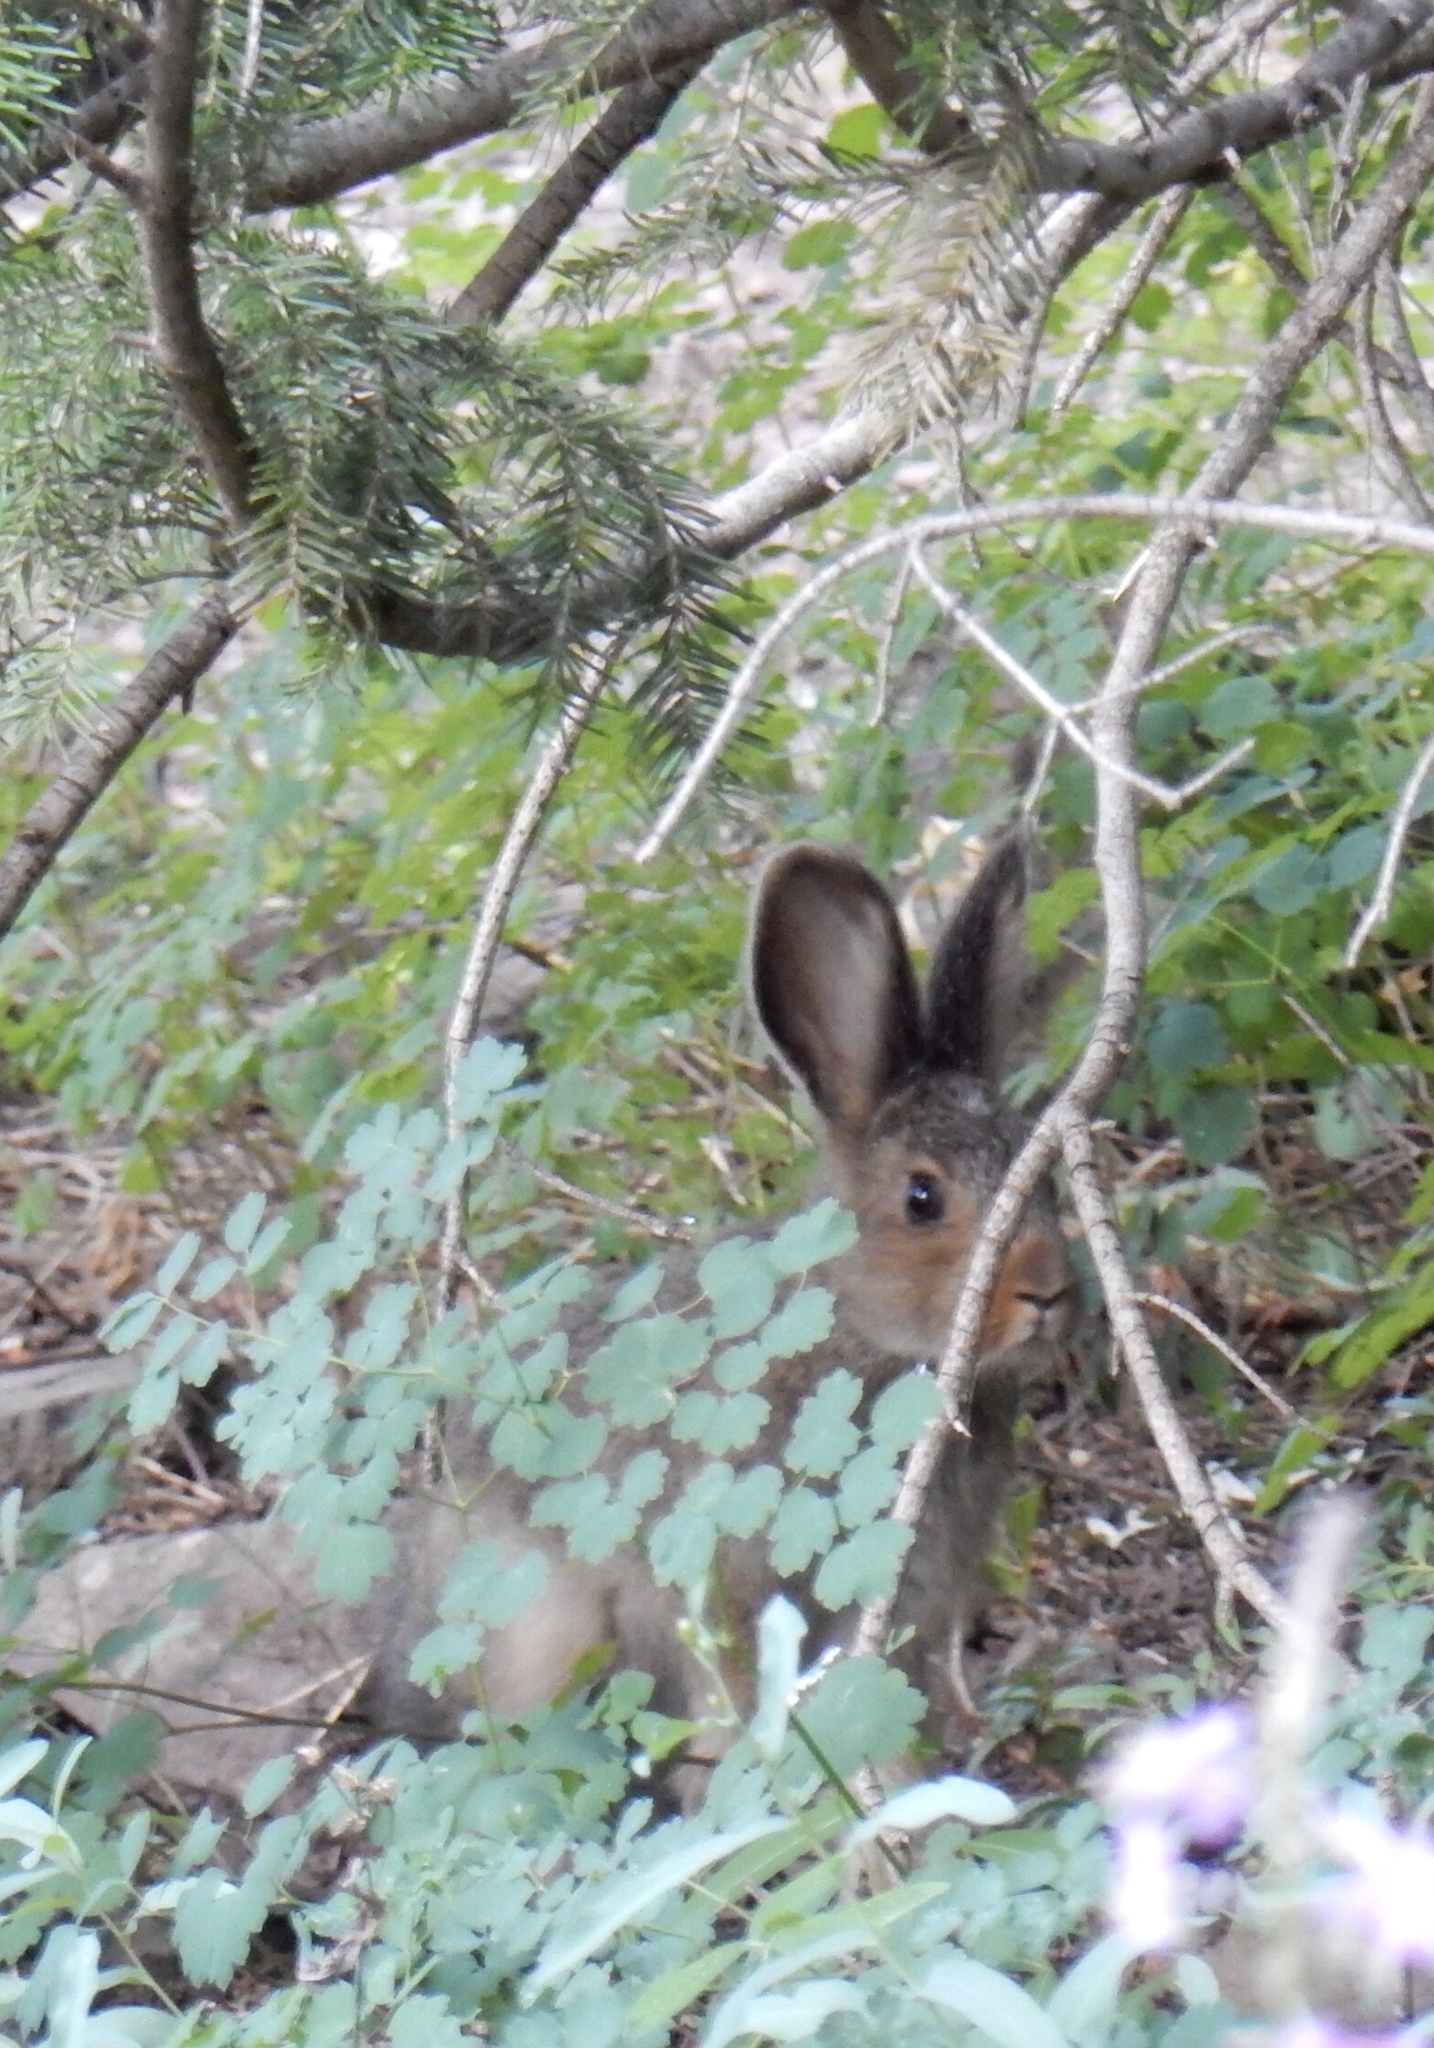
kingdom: Animalia
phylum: Chordata
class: Mammalia
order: Lagomorpha
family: Leporidae
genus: Lepus
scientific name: Lepus americanus
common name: Snowshoe hare
